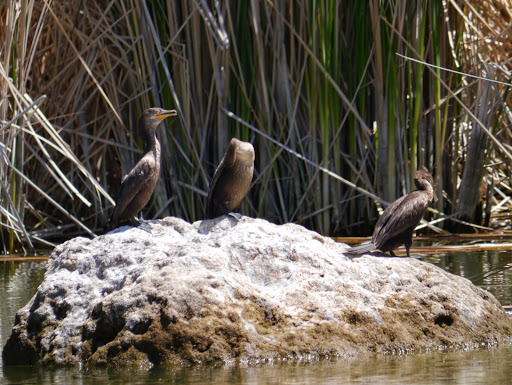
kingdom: Animalia
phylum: Chordata
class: Aves
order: Suliformes
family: Phalacrocoracidae
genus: Phalacrocorax
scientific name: Phalacrocorax auritus
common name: Double-crested cormorant
